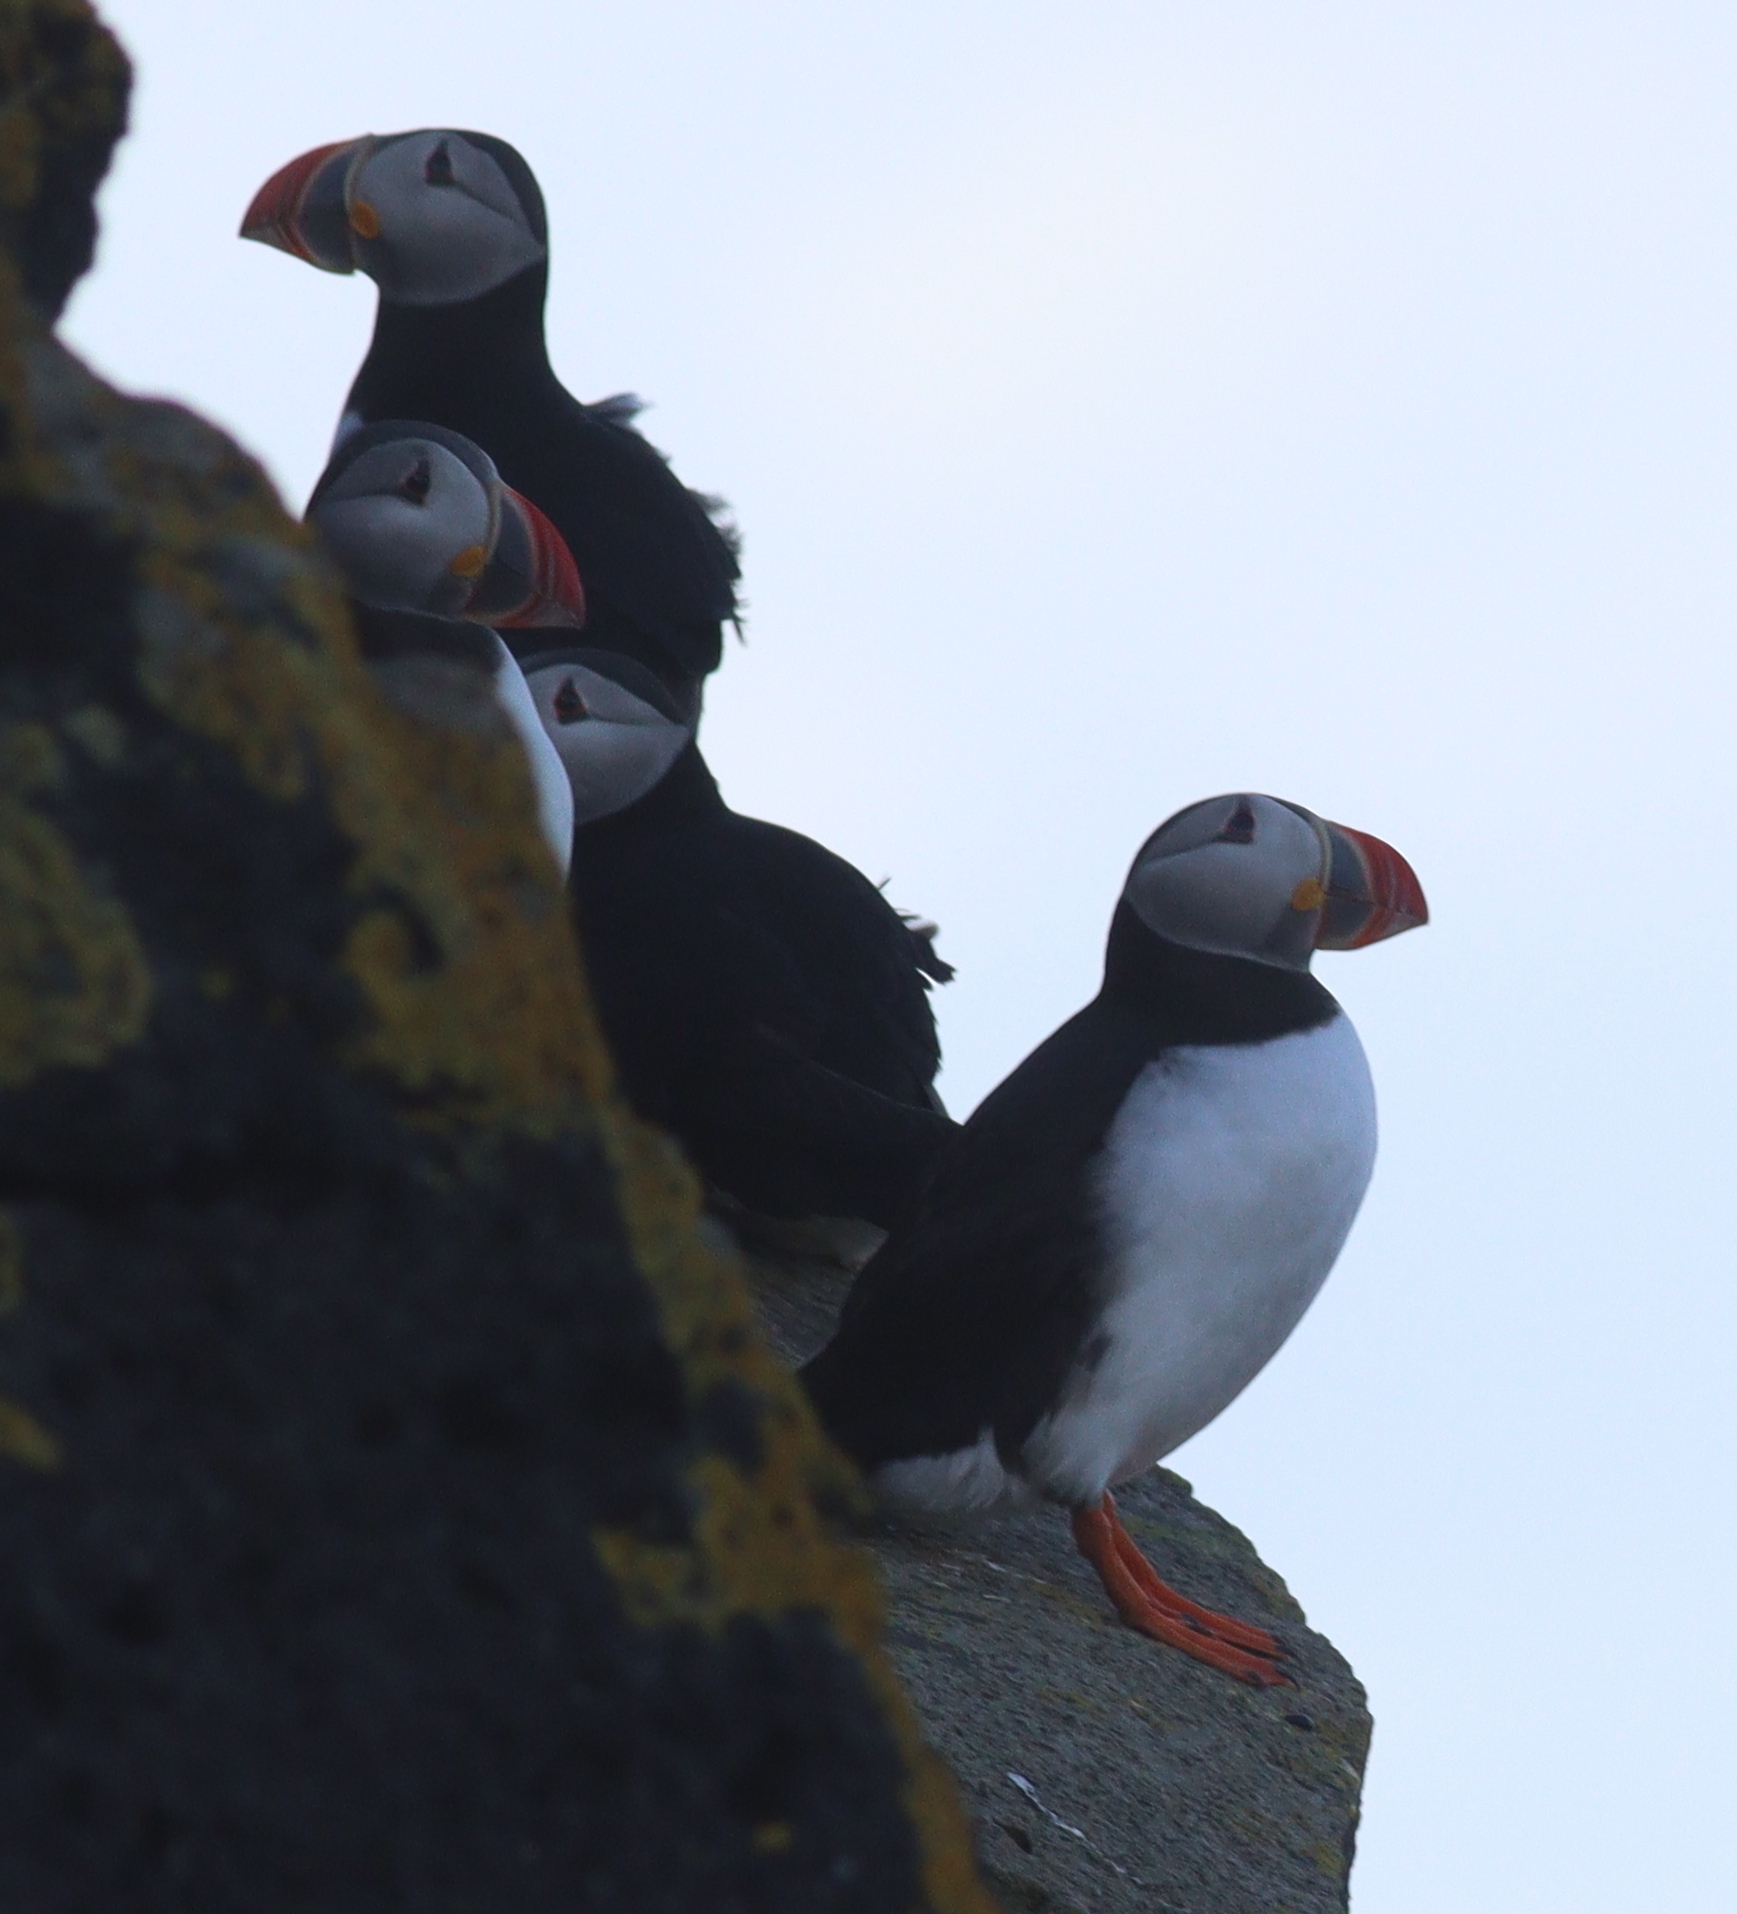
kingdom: Animalia
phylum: Chordata
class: Aves
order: Charadriiformes
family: Alcidae
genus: Fratercula
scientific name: Fratercula arctica
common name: Atlantic puffin
